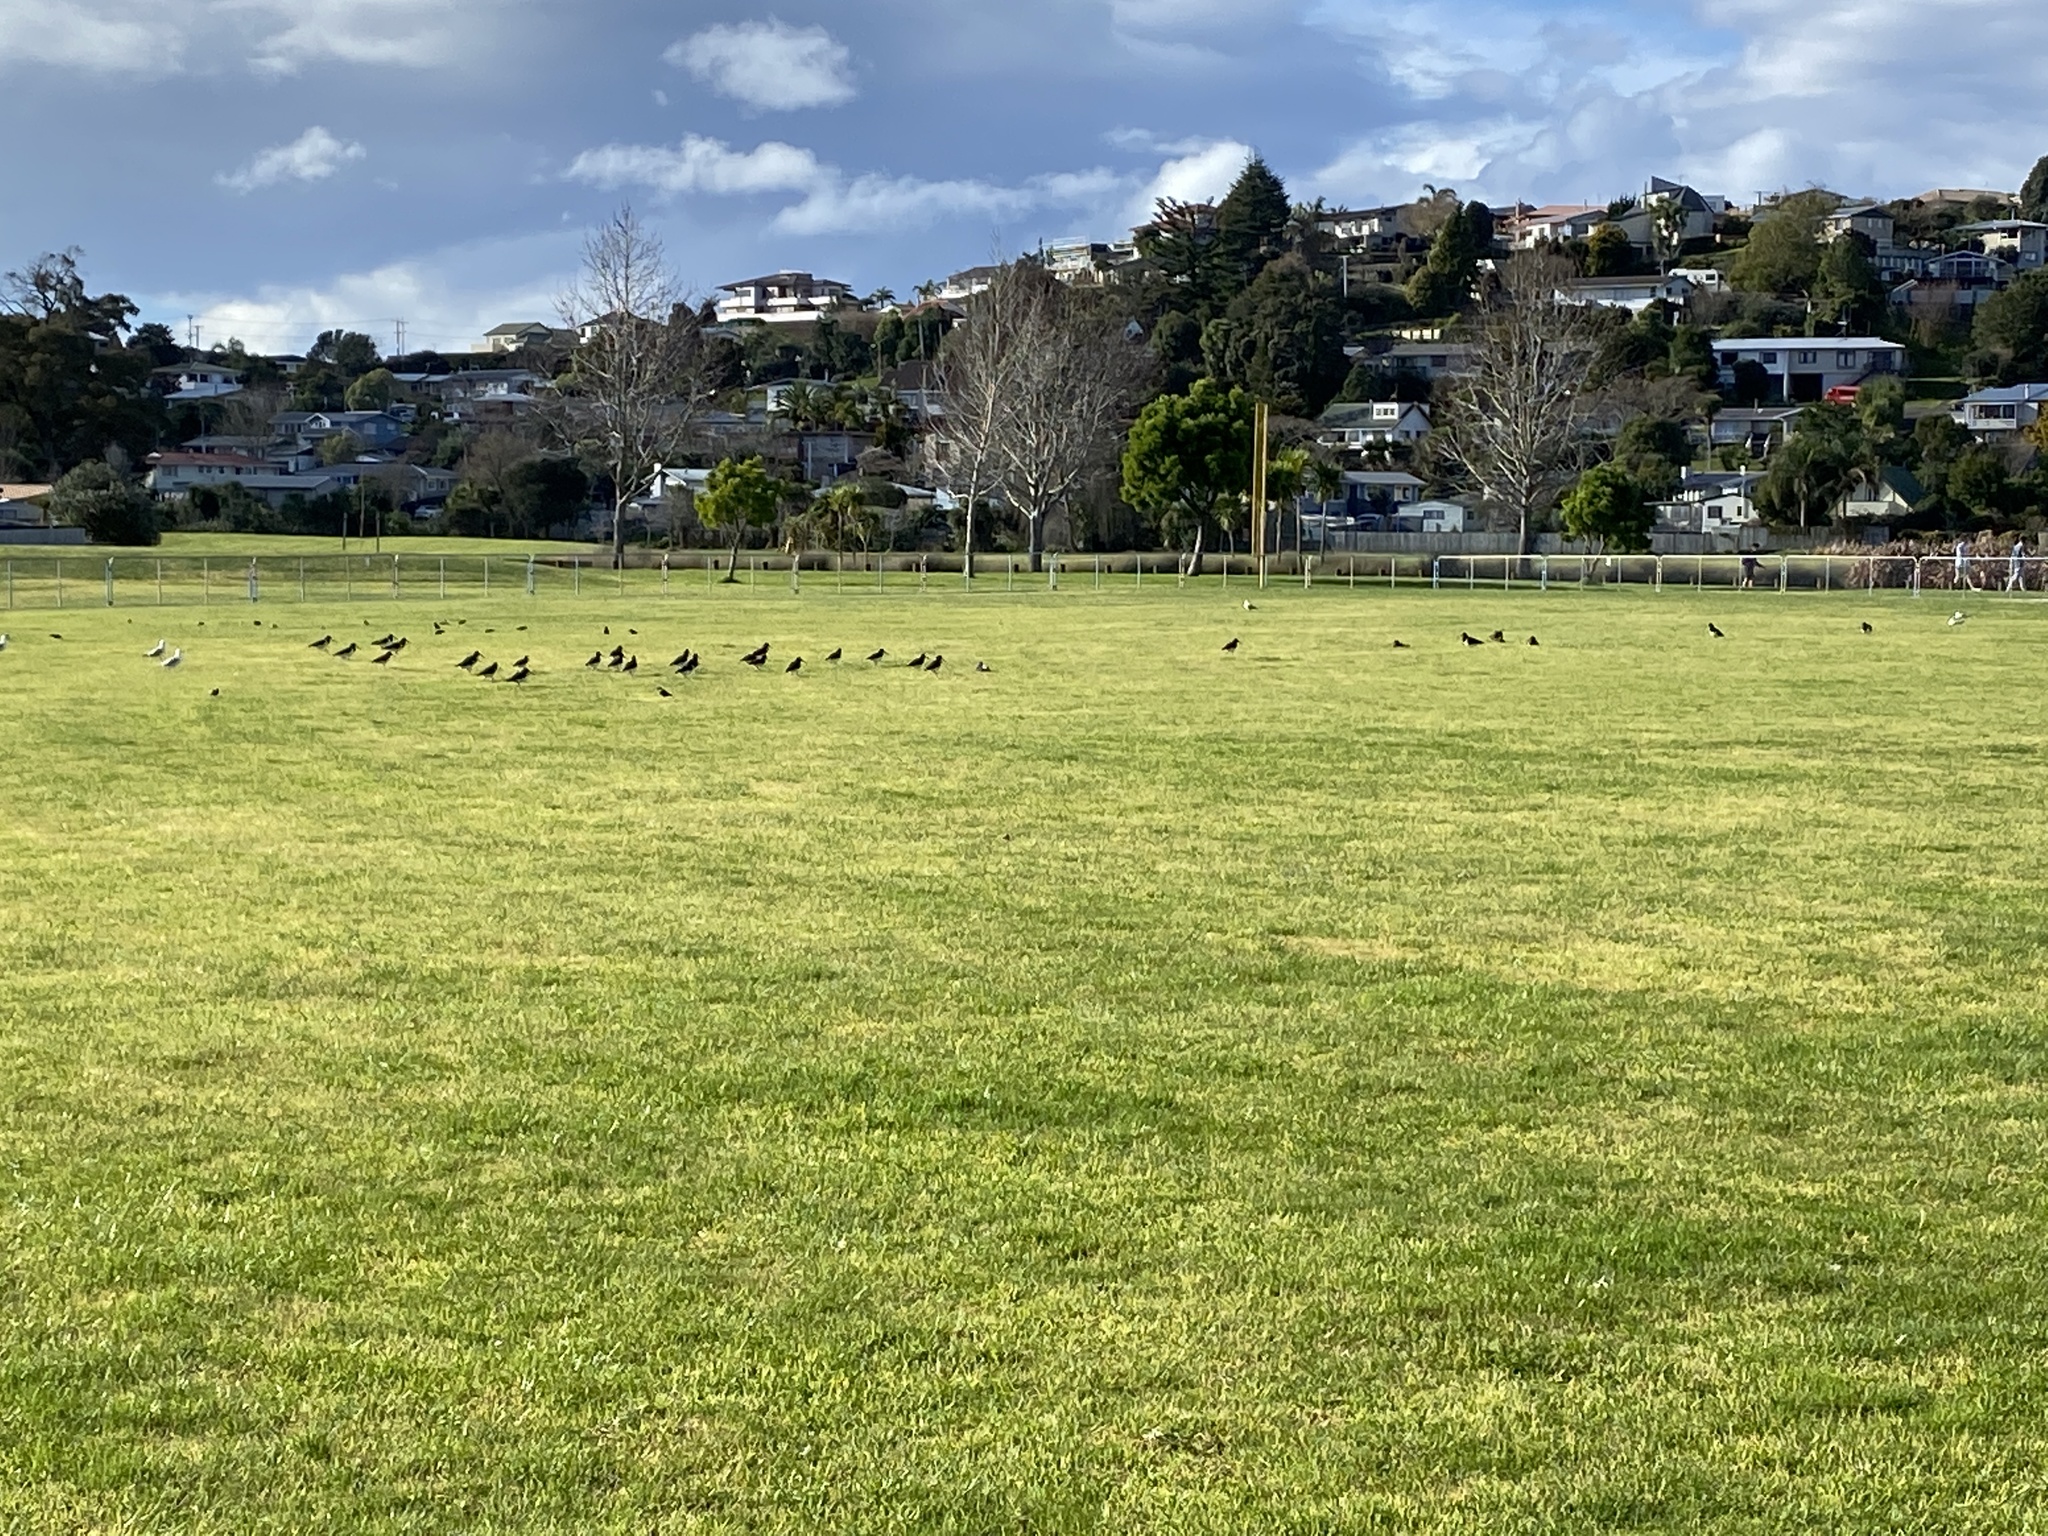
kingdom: Animalia
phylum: Chordata
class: Aves
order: Charadriiformes
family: Haematopodidae
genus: Haematopus
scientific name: Haematopus finschi
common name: South island oystercatcher
